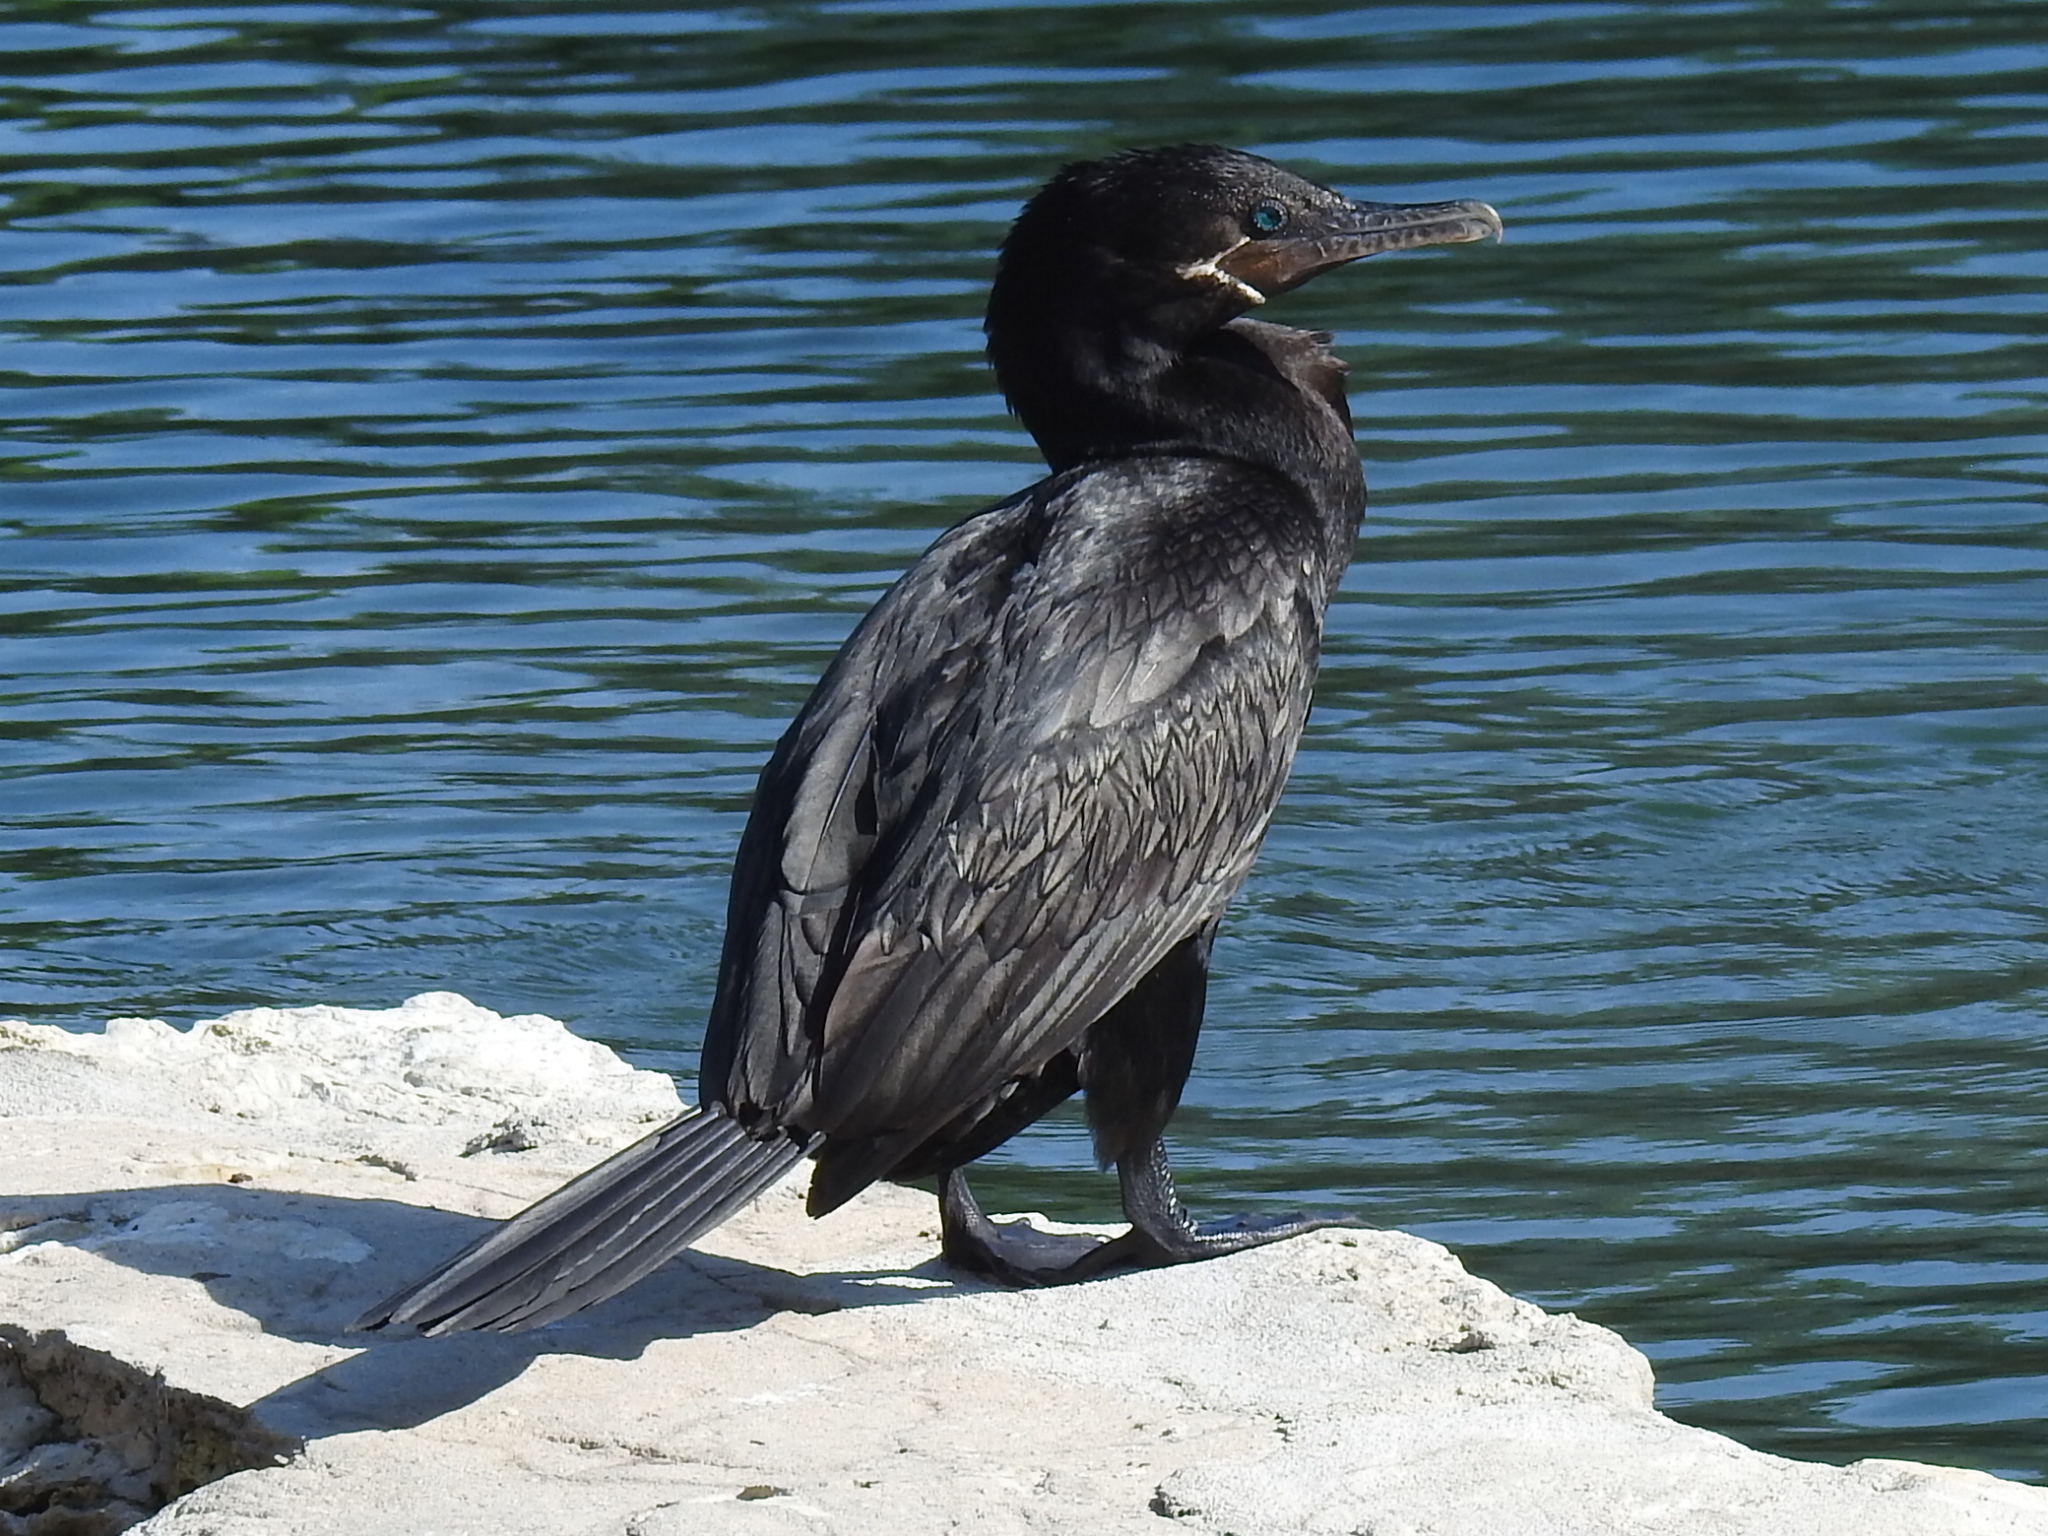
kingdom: Animalia
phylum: Chordata
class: Aves
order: Suliformes
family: Phalacrocoracidae
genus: Phalacrocorax
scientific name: Phalacrocorax brasilianus
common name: Neotropic cormorant
